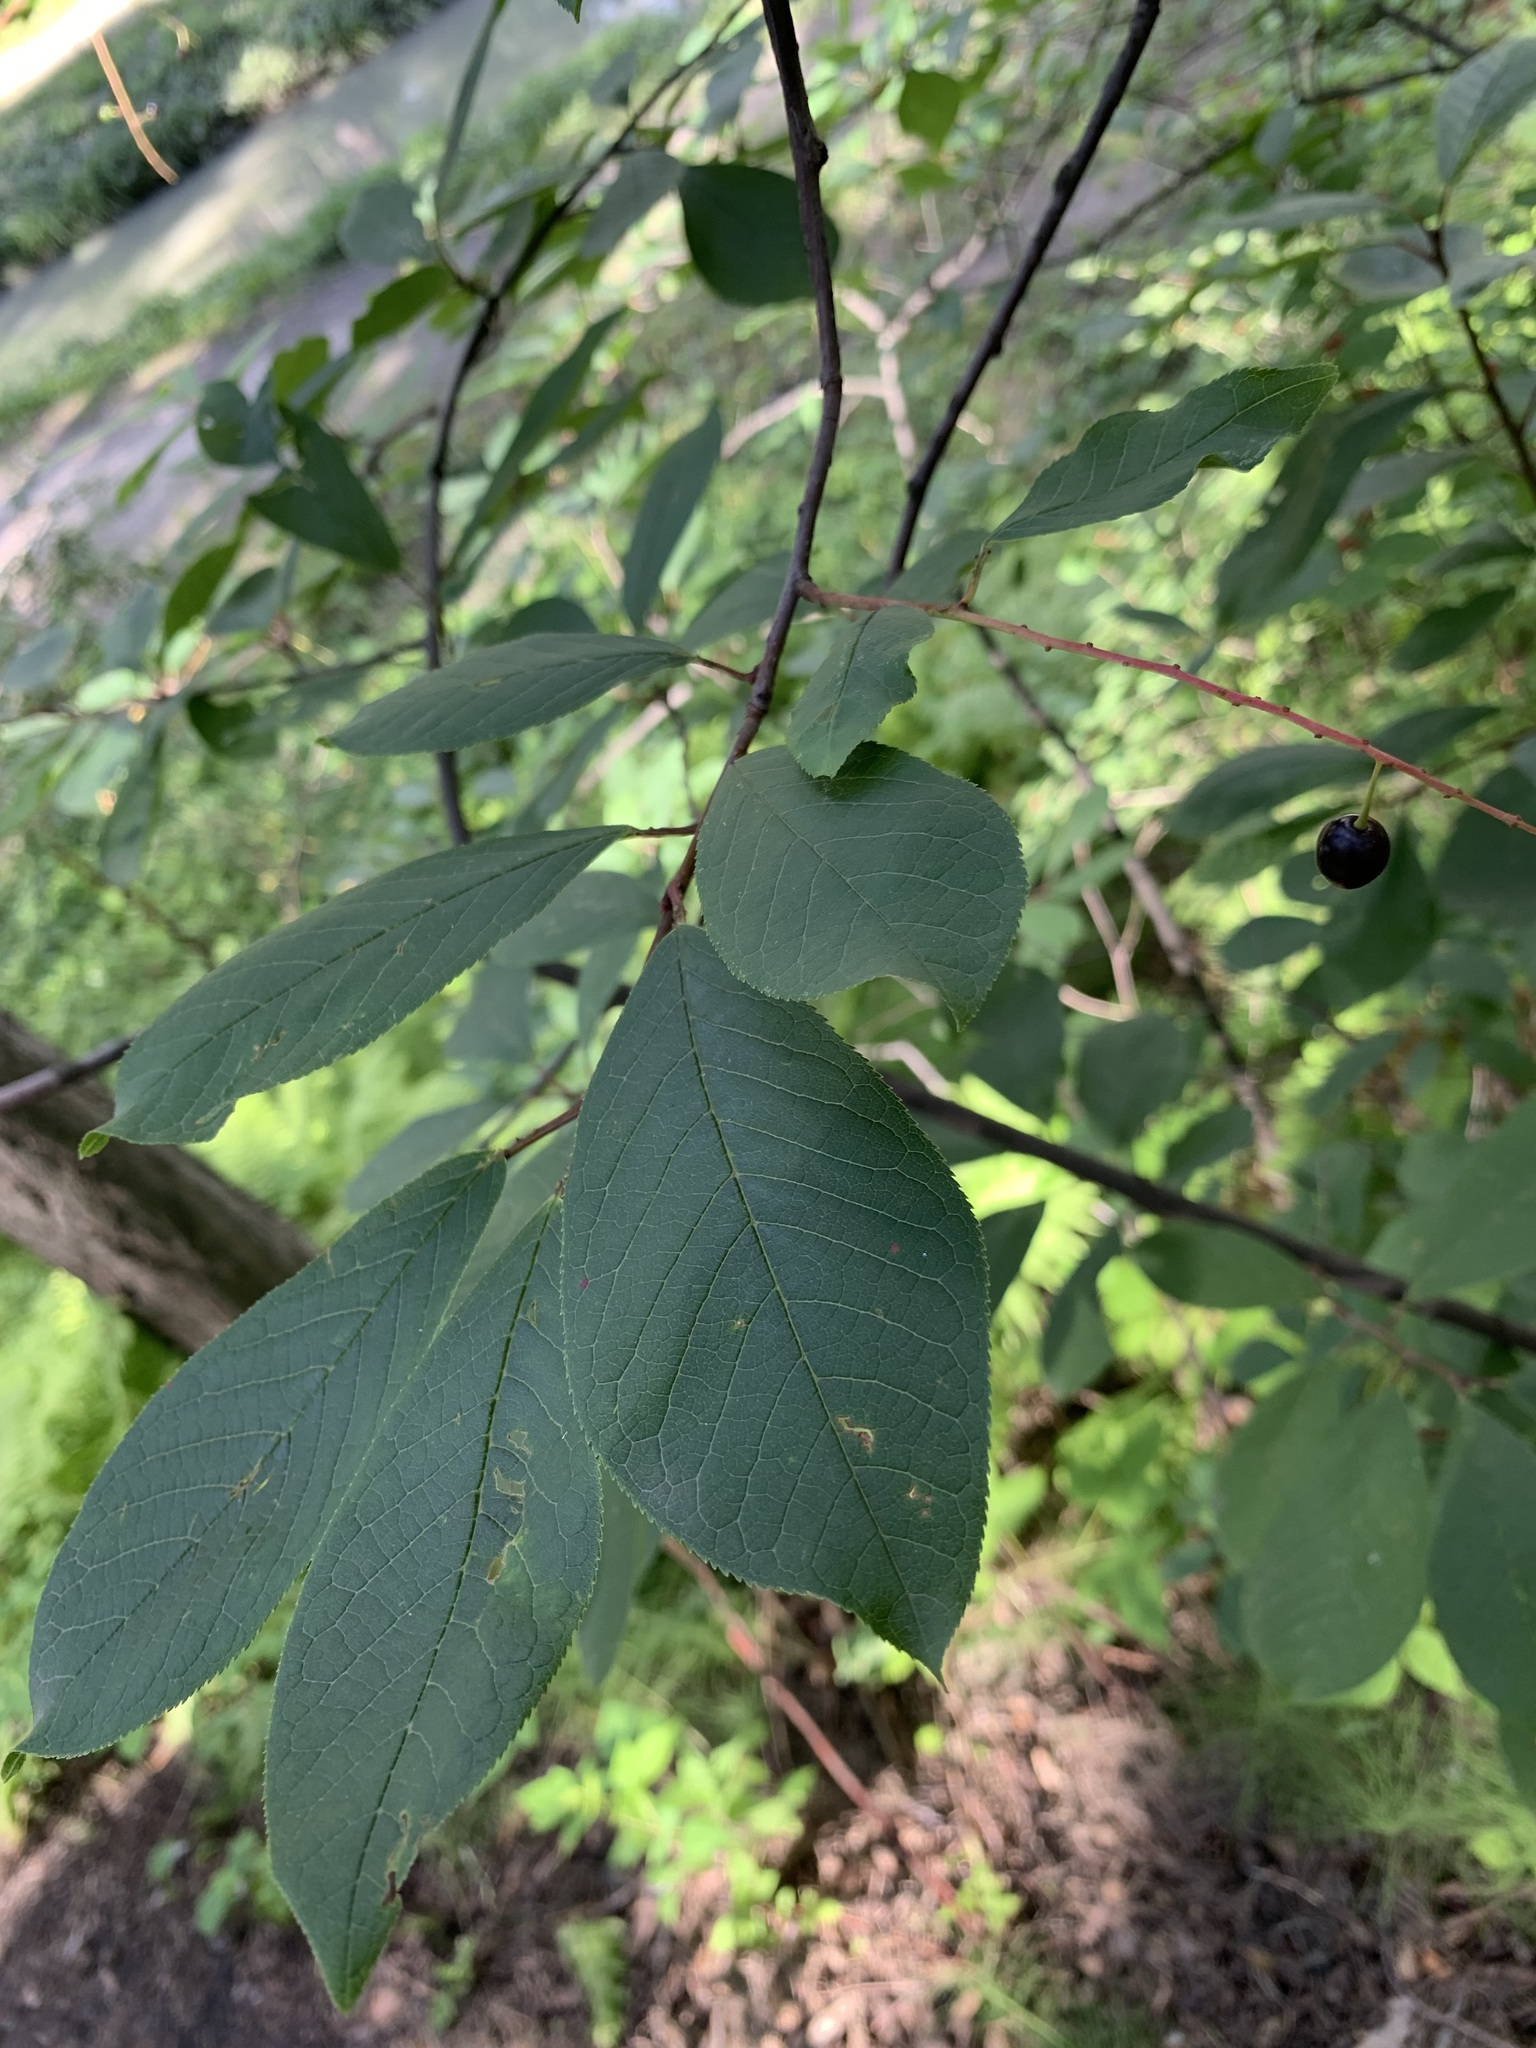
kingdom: Plantae
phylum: Tracheophyta
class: Magnoliopsida
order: Rosales
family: Rosaceae
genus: Prunus
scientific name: Prunus padus
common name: Bird cherry
